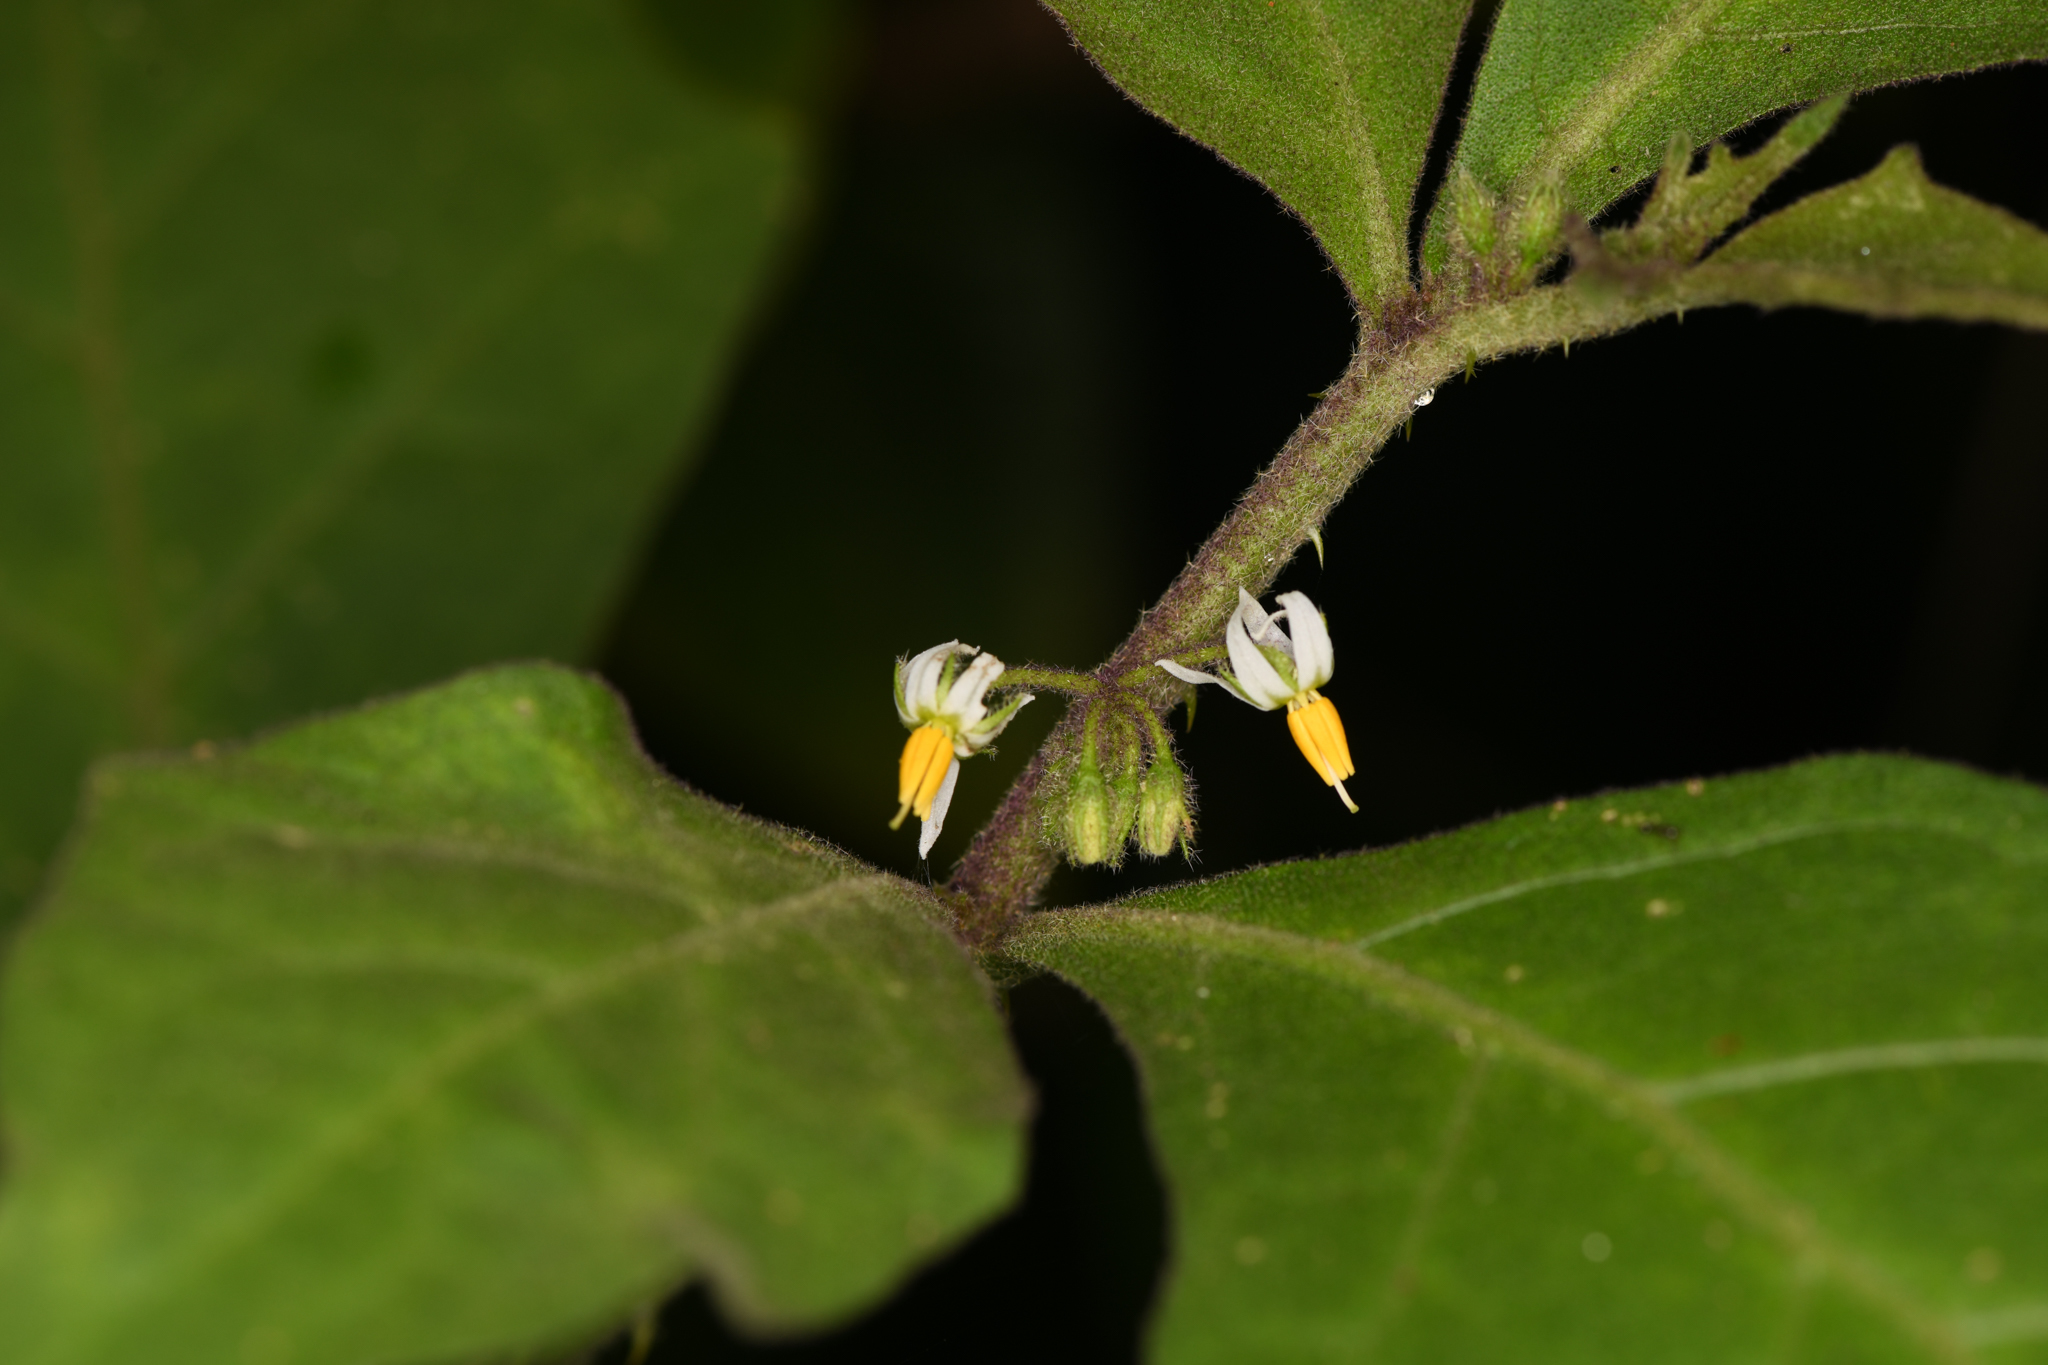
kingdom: Plantae
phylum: Tracheophyta
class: Magnoliopsida
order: Solanales
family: Solanaceae
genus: Solanum
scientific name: Solanum jamaicense
